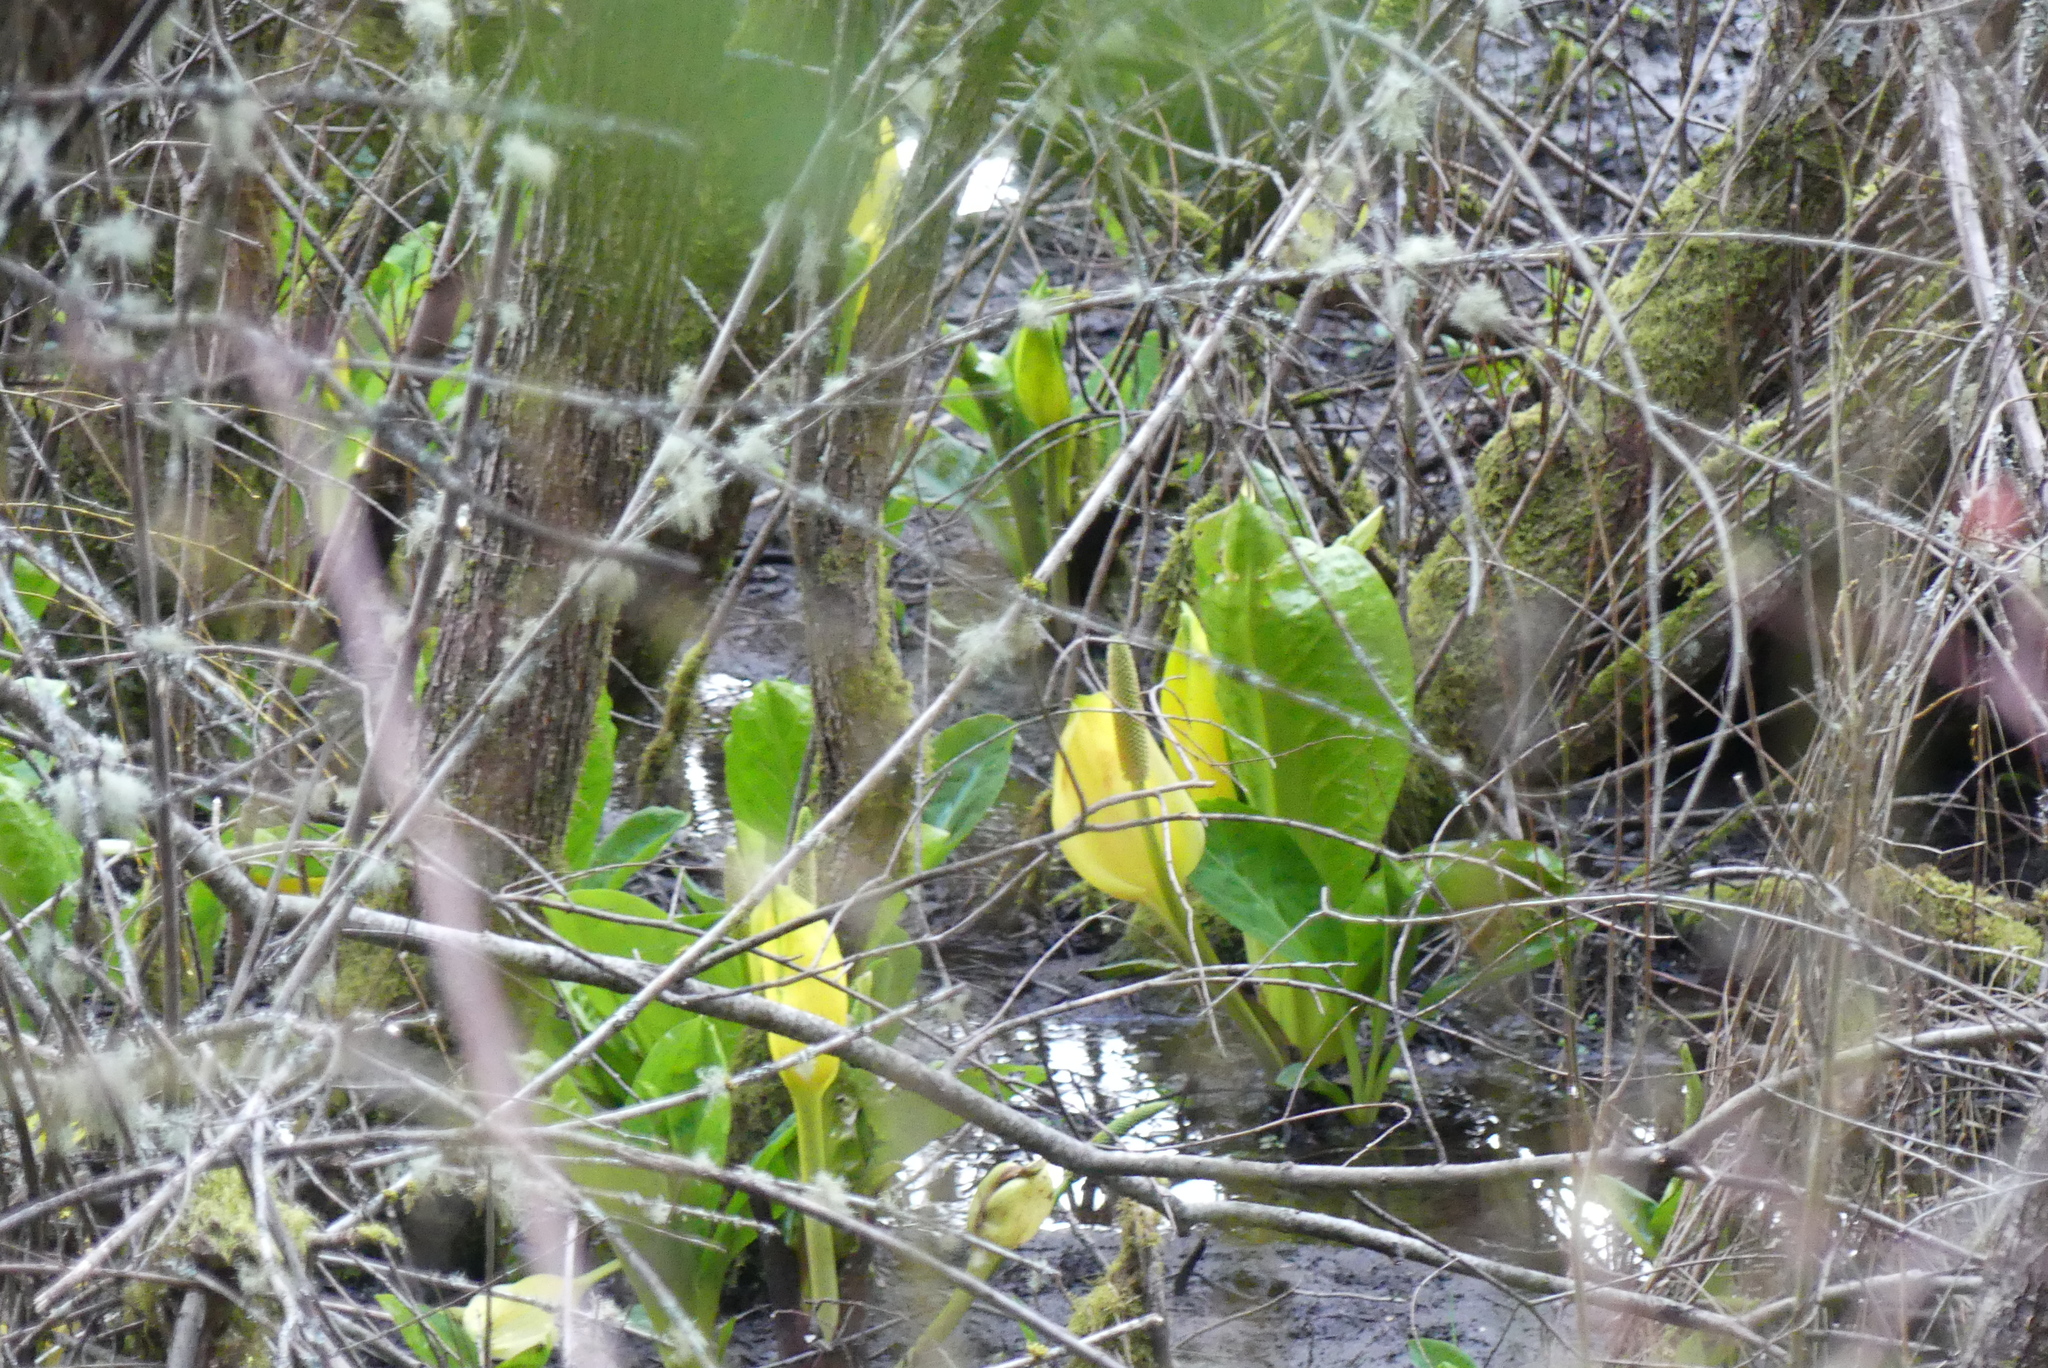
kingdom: Plantae
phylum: Tracheophyta
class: Liliopsida
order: Alismatales
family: Araceae
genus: Lysichiton
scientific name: Lysichiton americanus
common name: American skunk cabbage
